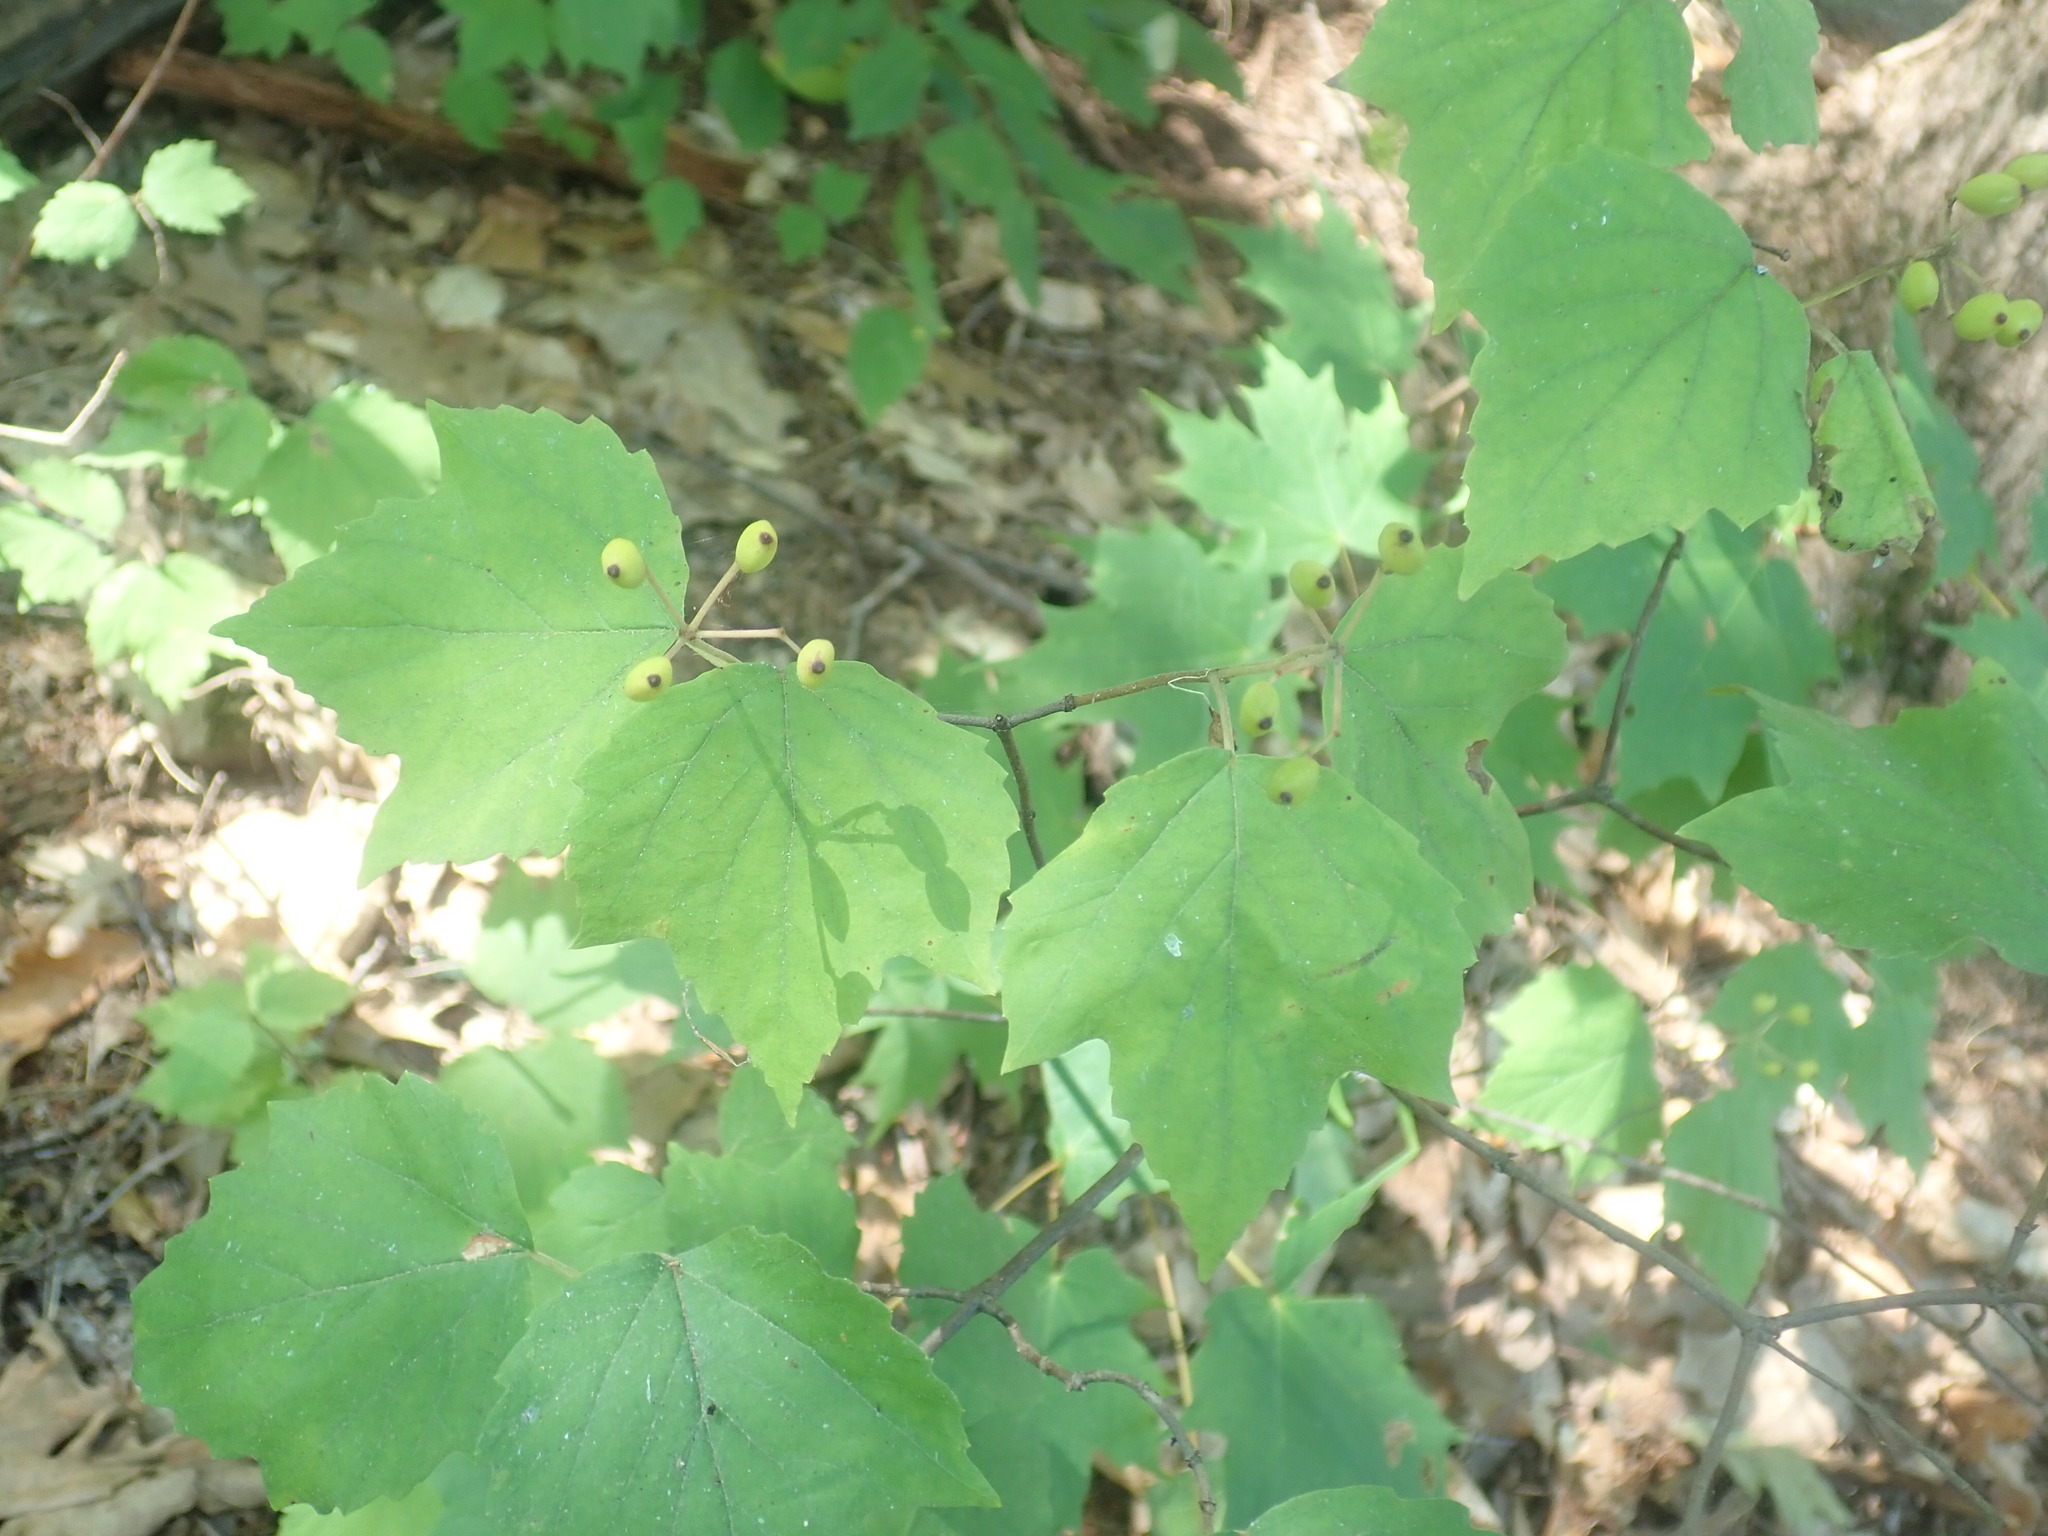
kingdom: Plantae
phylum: Tracheophyta
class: Magnoliopsida
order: Dipsacales
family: Viburnaceae
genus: Viburnum
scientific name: Viburnum acerifolium
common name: Dockmackie
